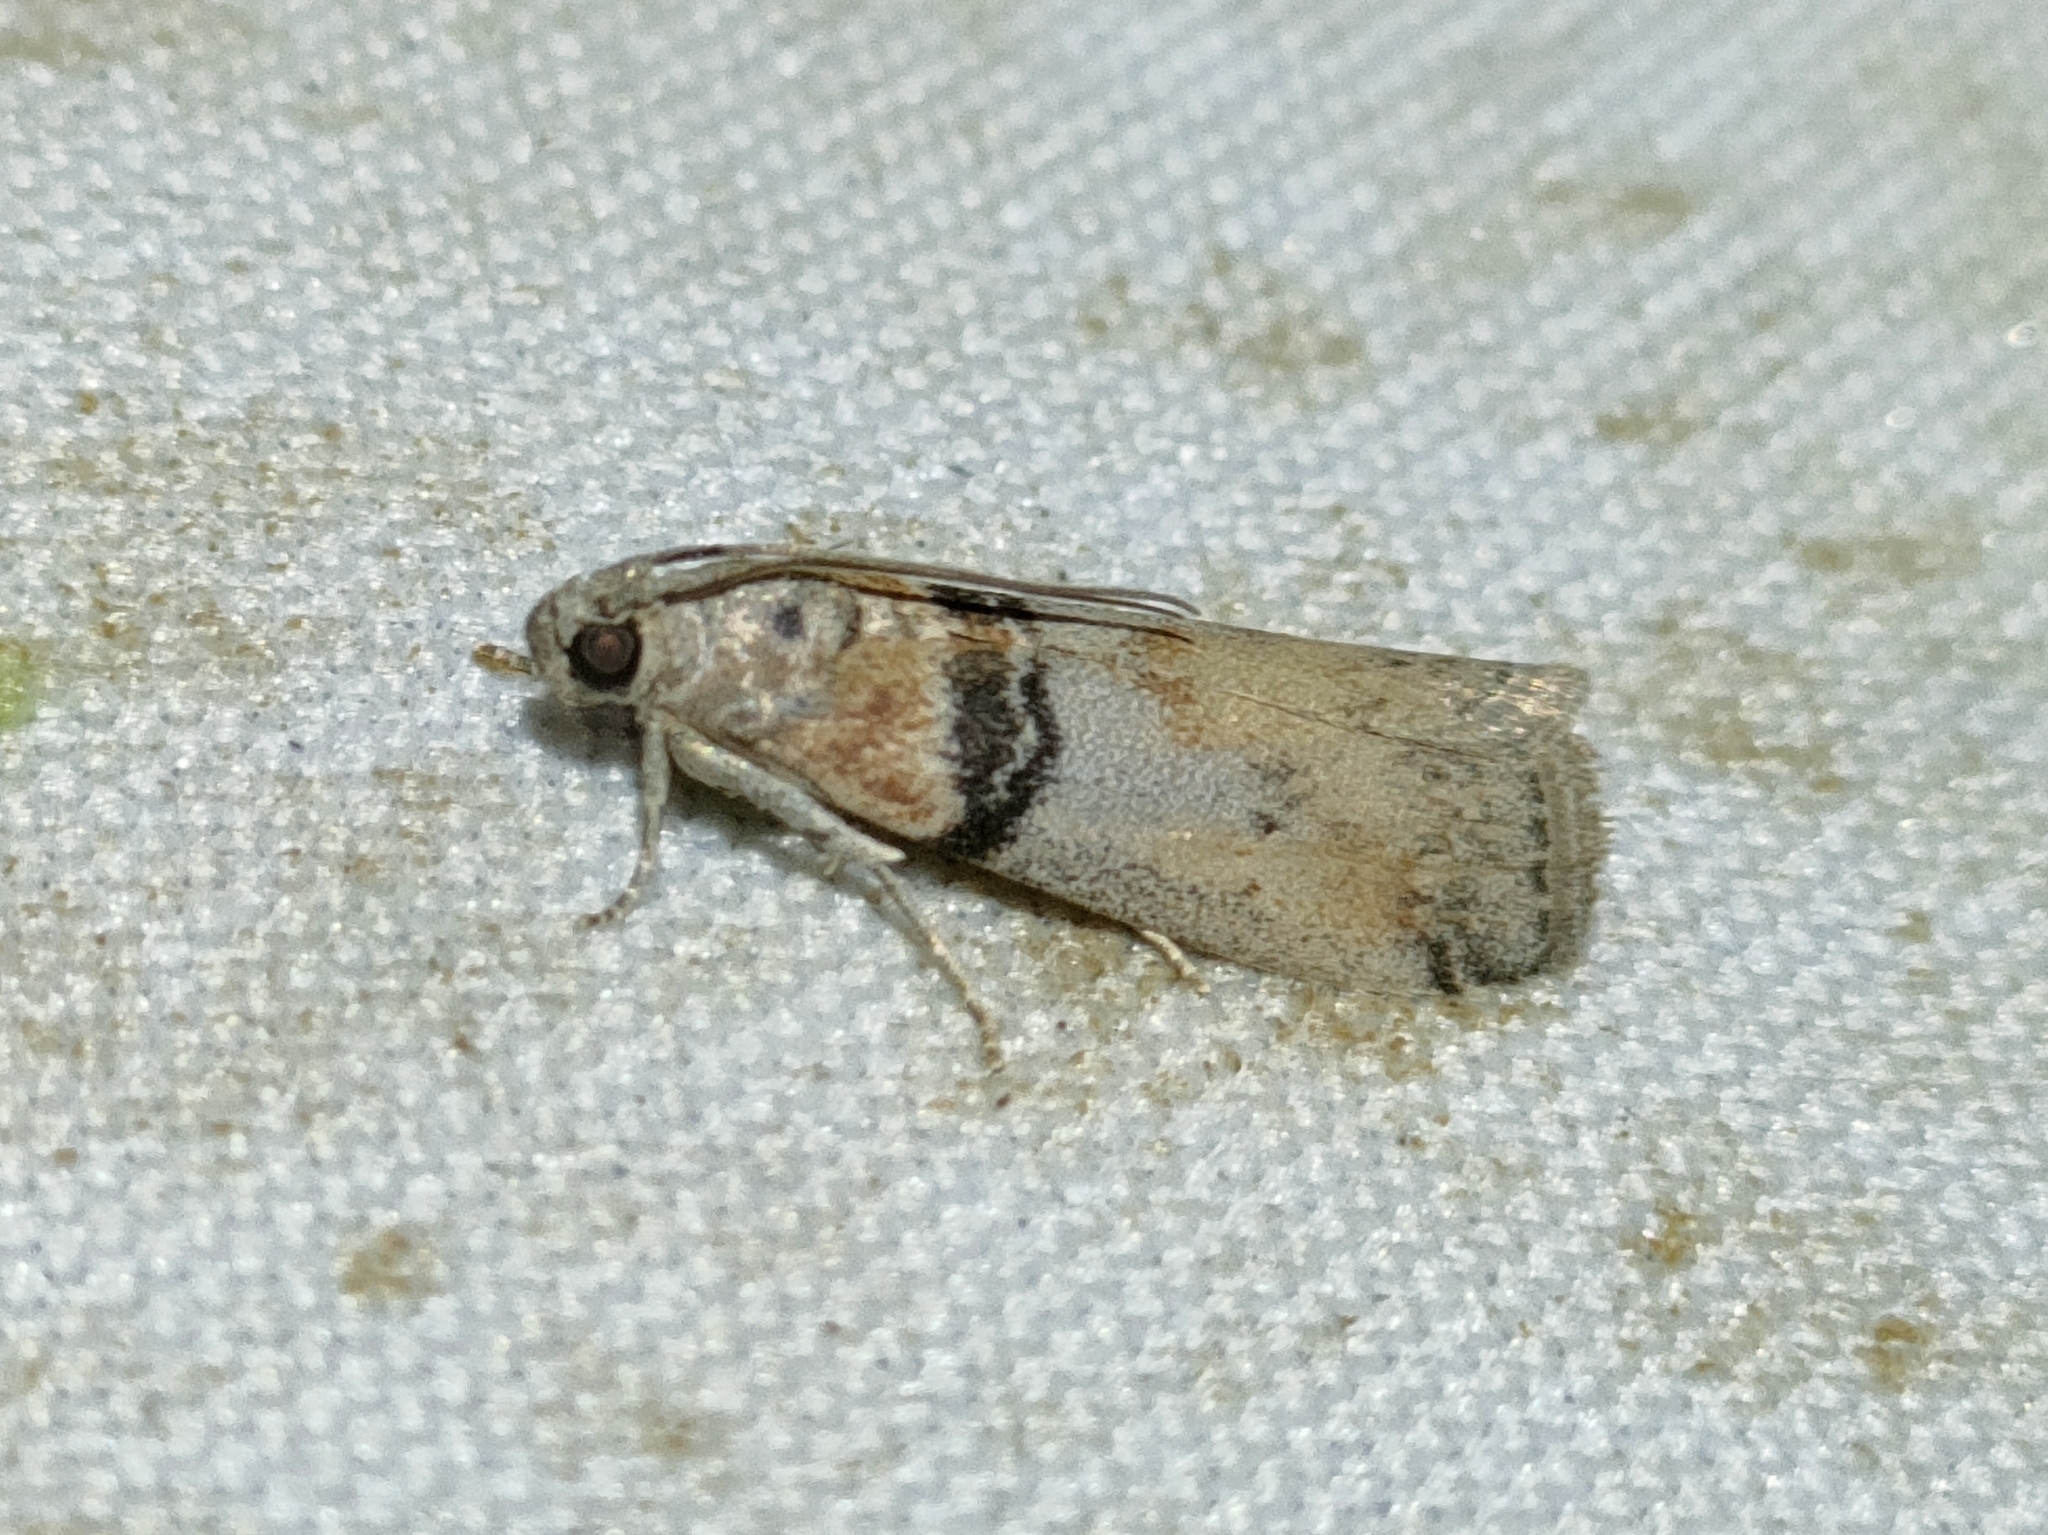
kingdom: Animalia
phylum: Arthropoda
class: Insecta
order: Lepidoptera
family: Pyralidae
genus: Sciota
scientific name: Sciota rhenella
